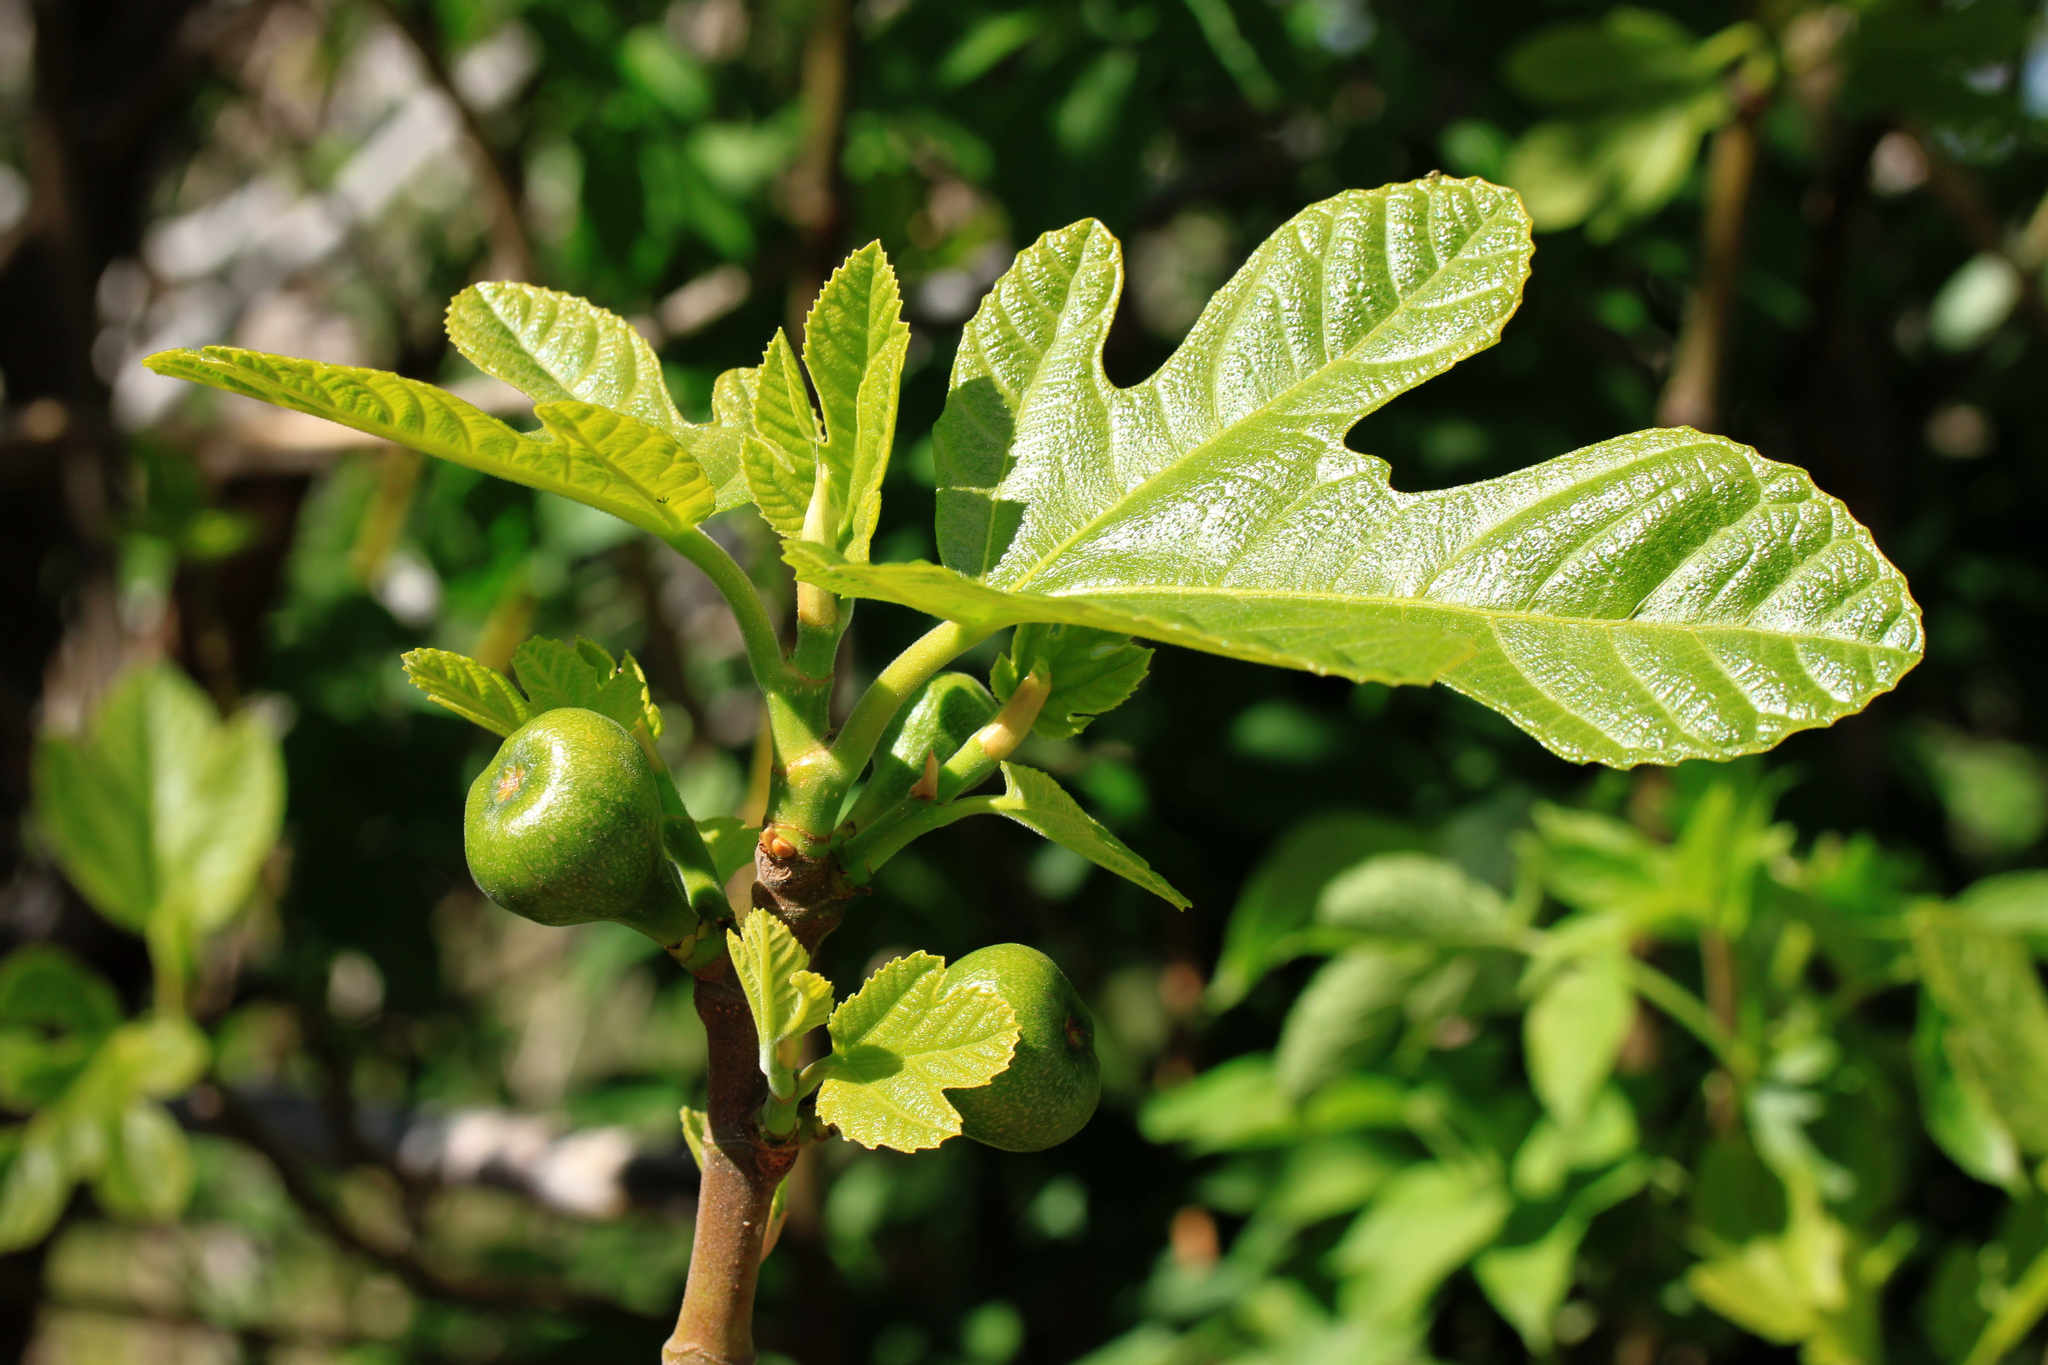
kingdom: Plantae
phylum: Tracheophyta
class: Magnoliopsida
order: Rosales
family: Moraceae
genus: Ficus
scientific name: Ficus carica
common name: Fig
